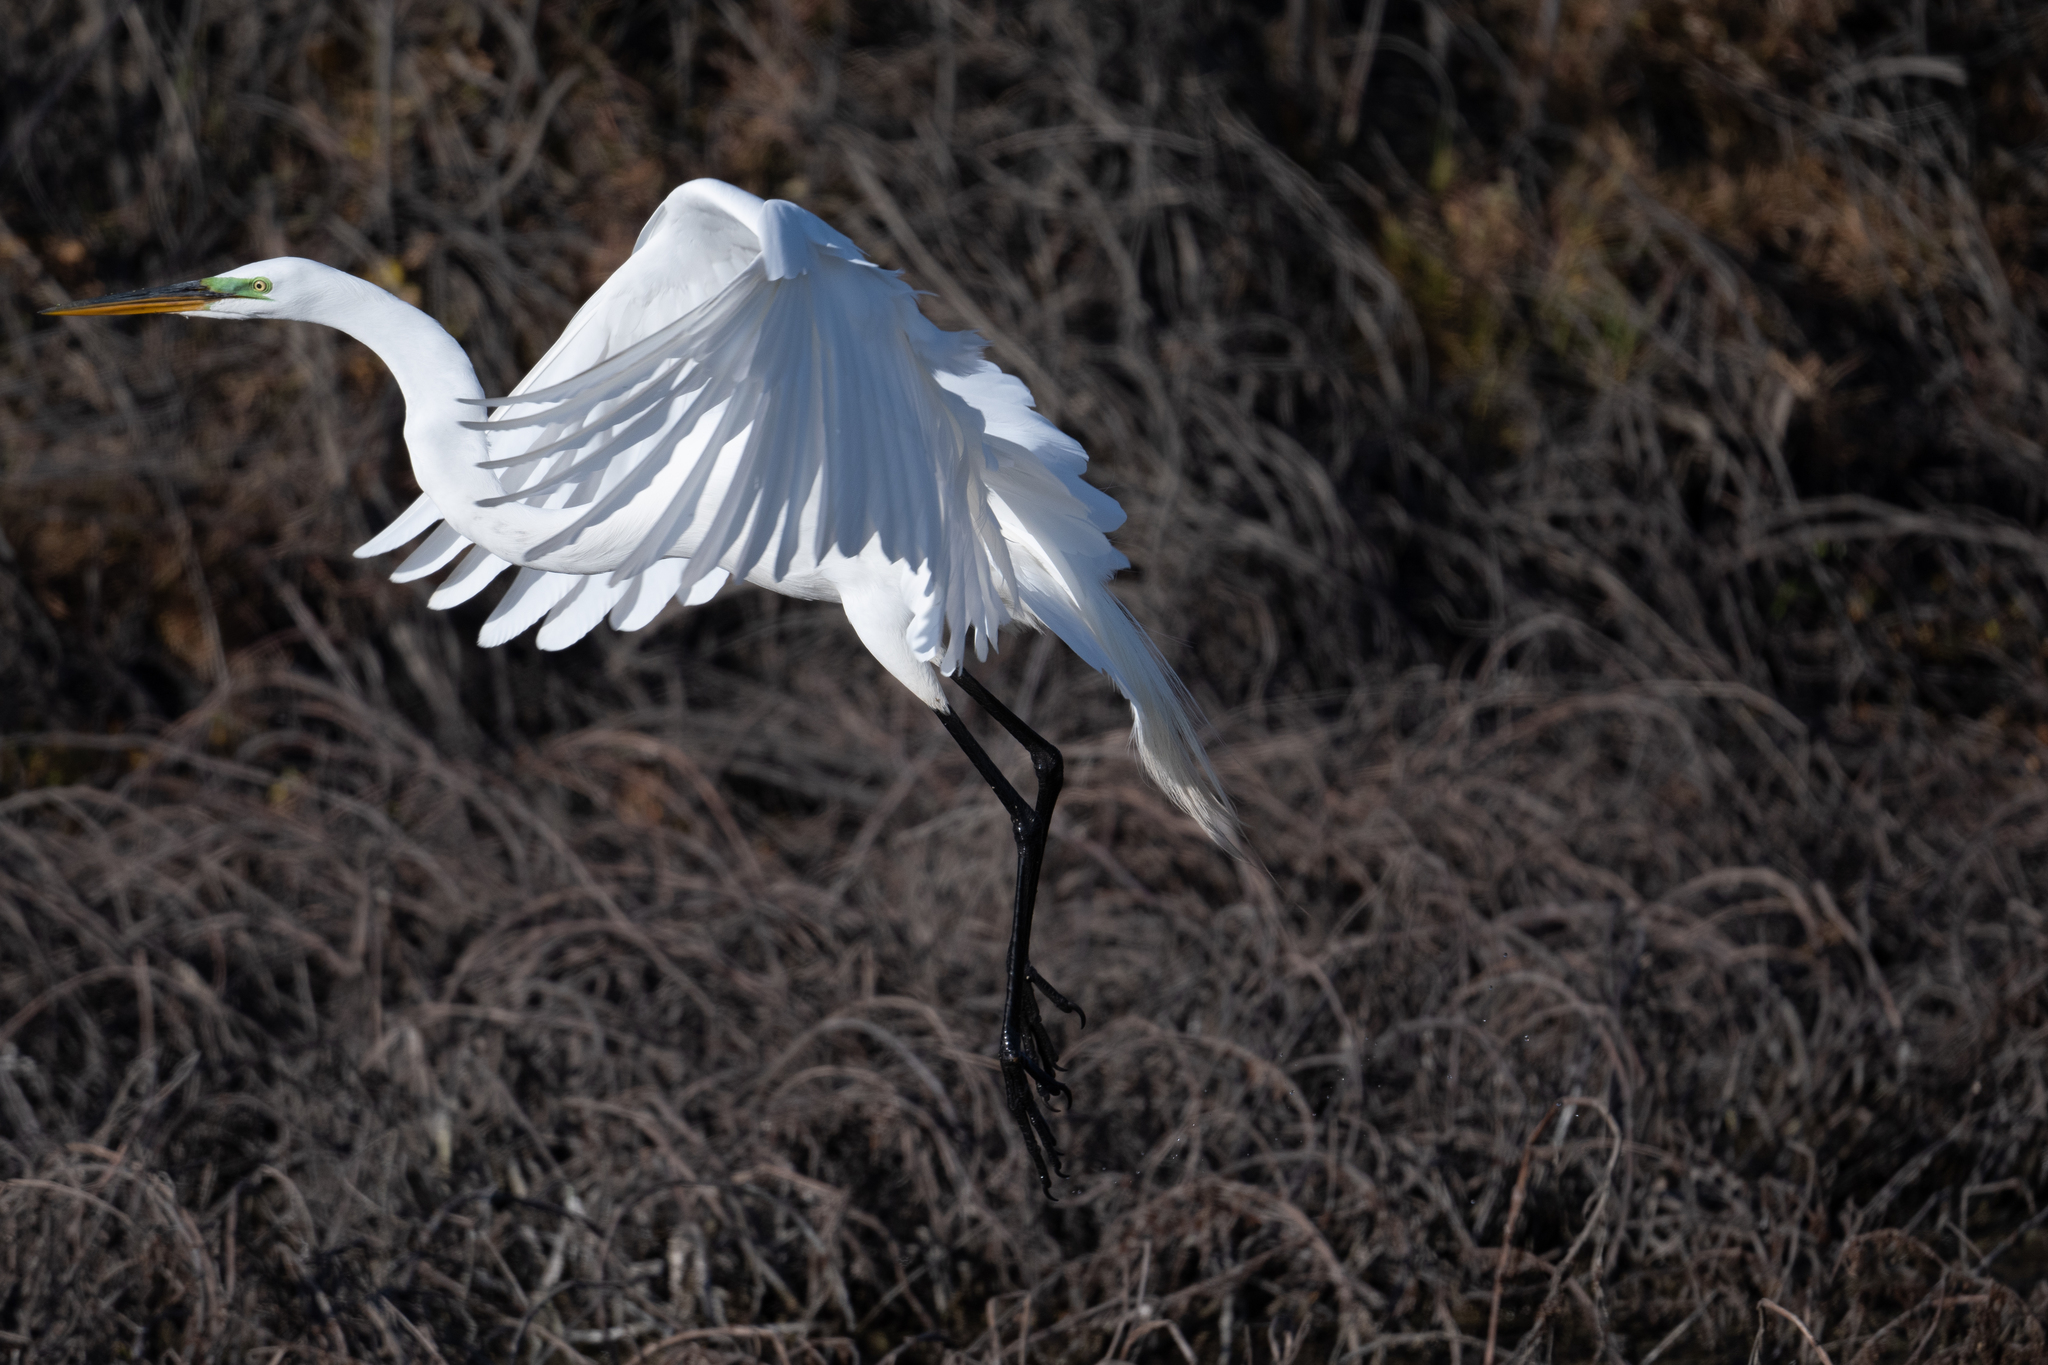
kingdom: Animalia
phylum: Chordata
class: Aves
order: Pelecaniformes
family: Ardeidae
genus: Ardea
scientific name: Ardea alba
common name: Great egret
